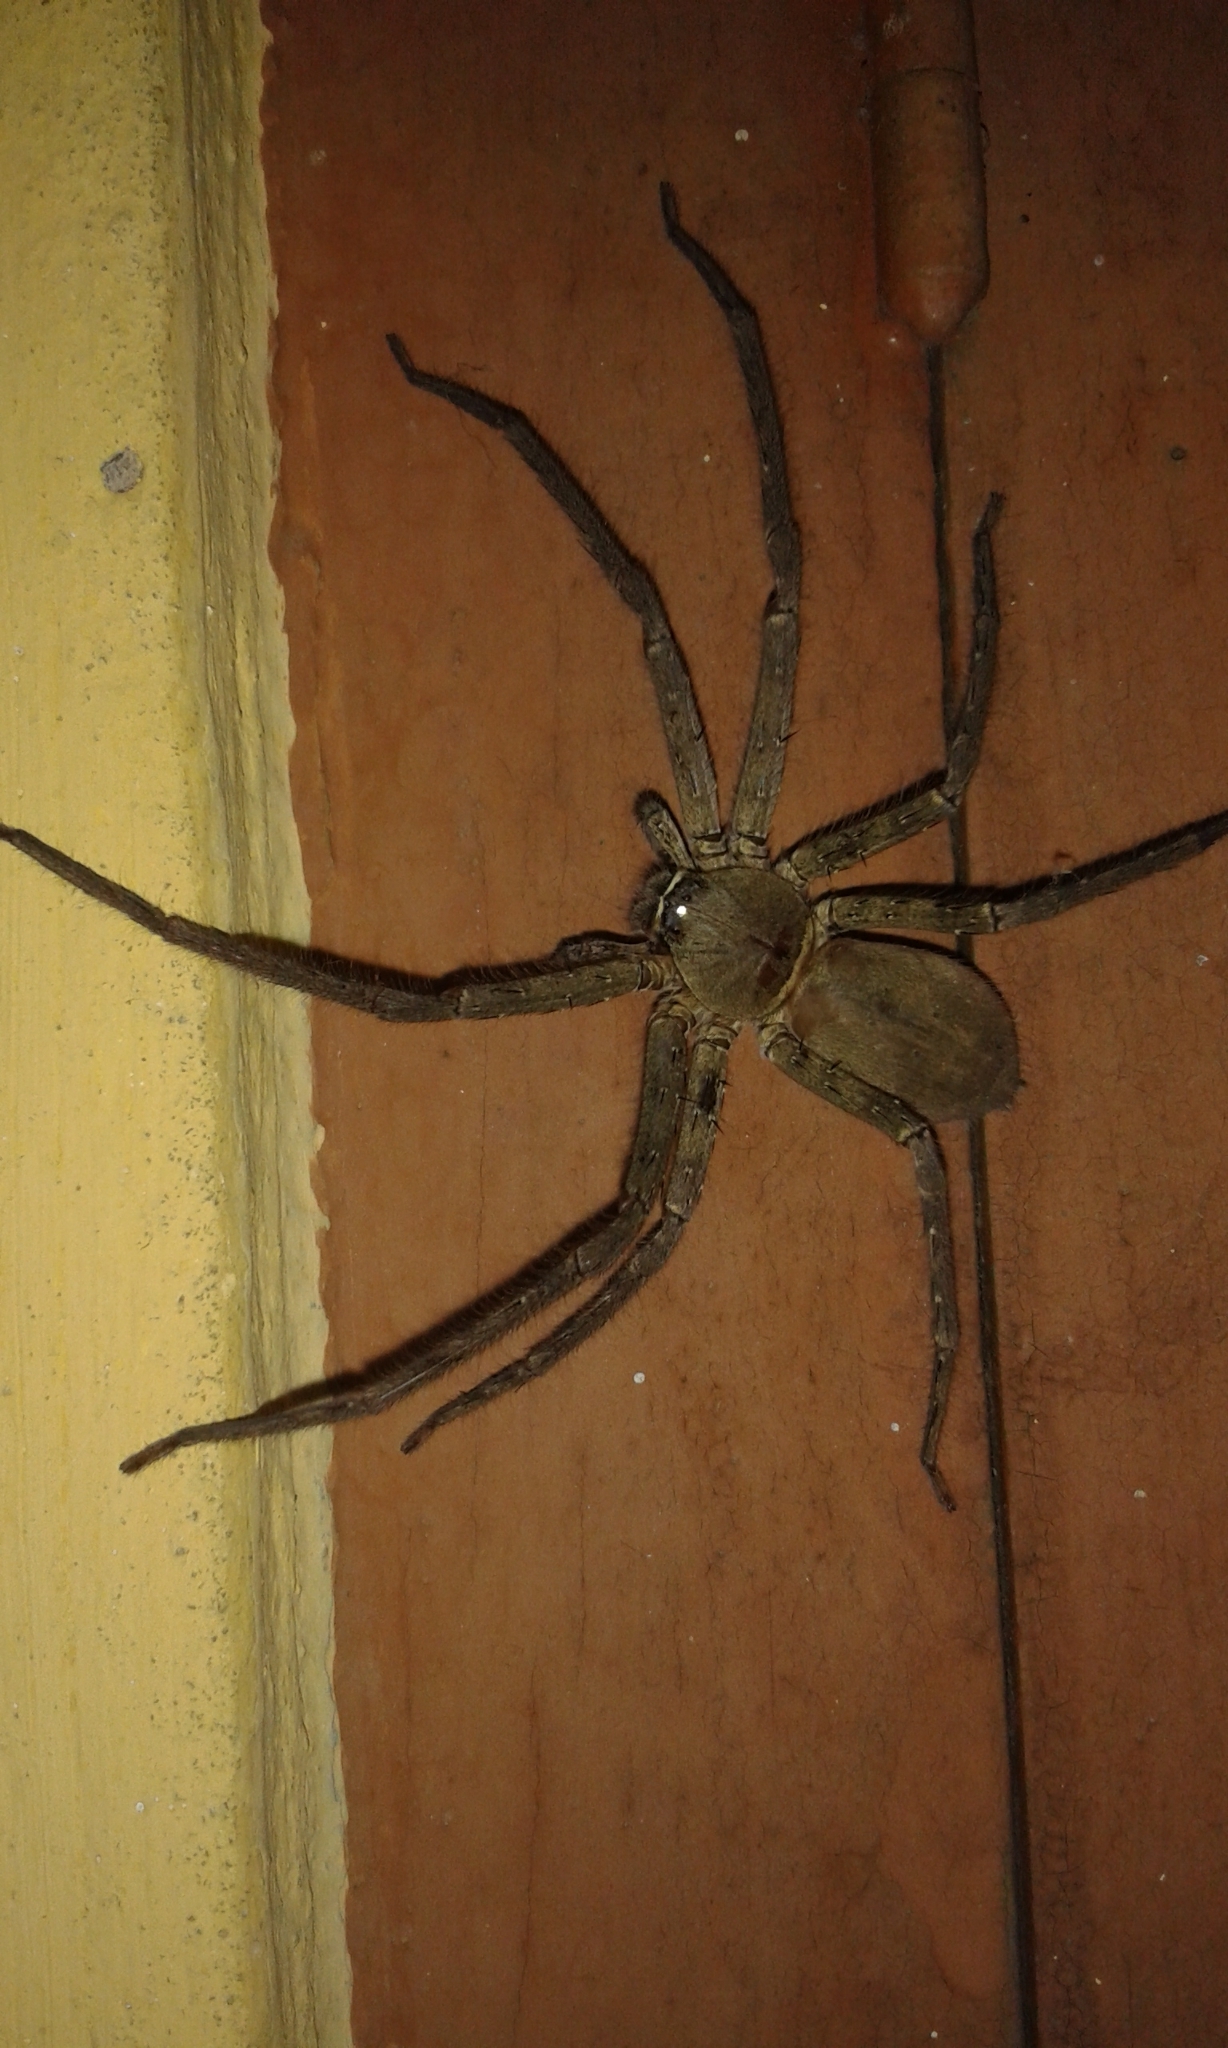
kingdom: Animalia
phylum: Arthropoda
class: Arachnida
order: Araneae
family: Sparassidae
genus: Heteropoda
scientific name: Heteropoda venatoria
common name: Huntsman spider
